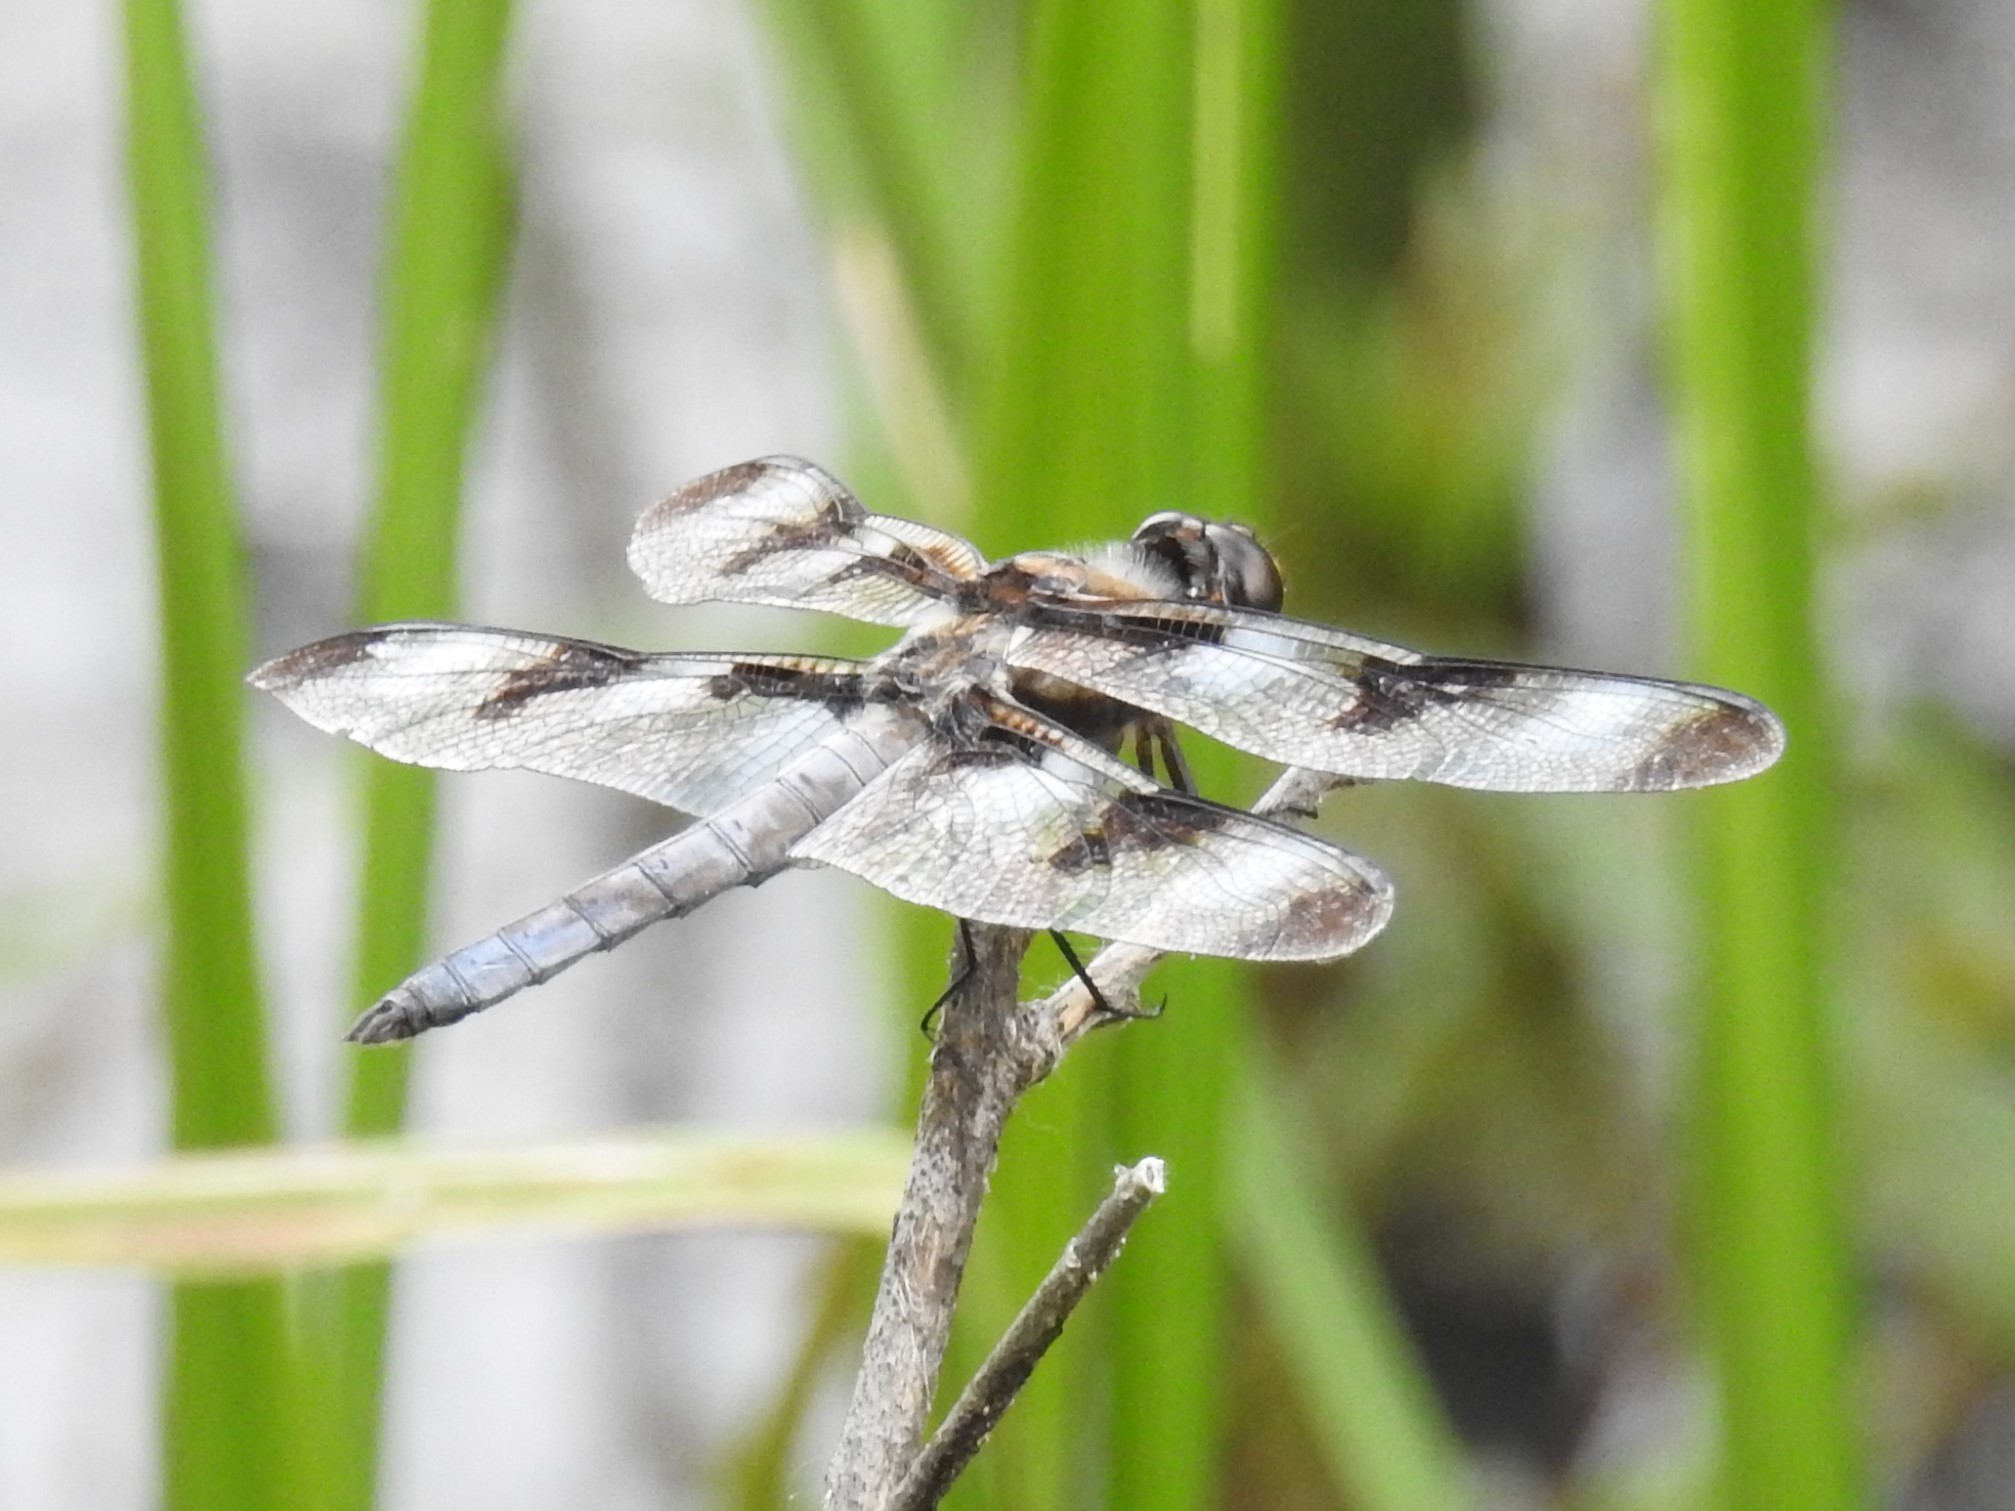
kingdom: Animalia
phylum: Arthropoda
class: Insecta
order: Odonata
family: Libellulidae
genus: Libellula
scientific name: Libellula pulchella
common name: Twelve-spotted skimmer
